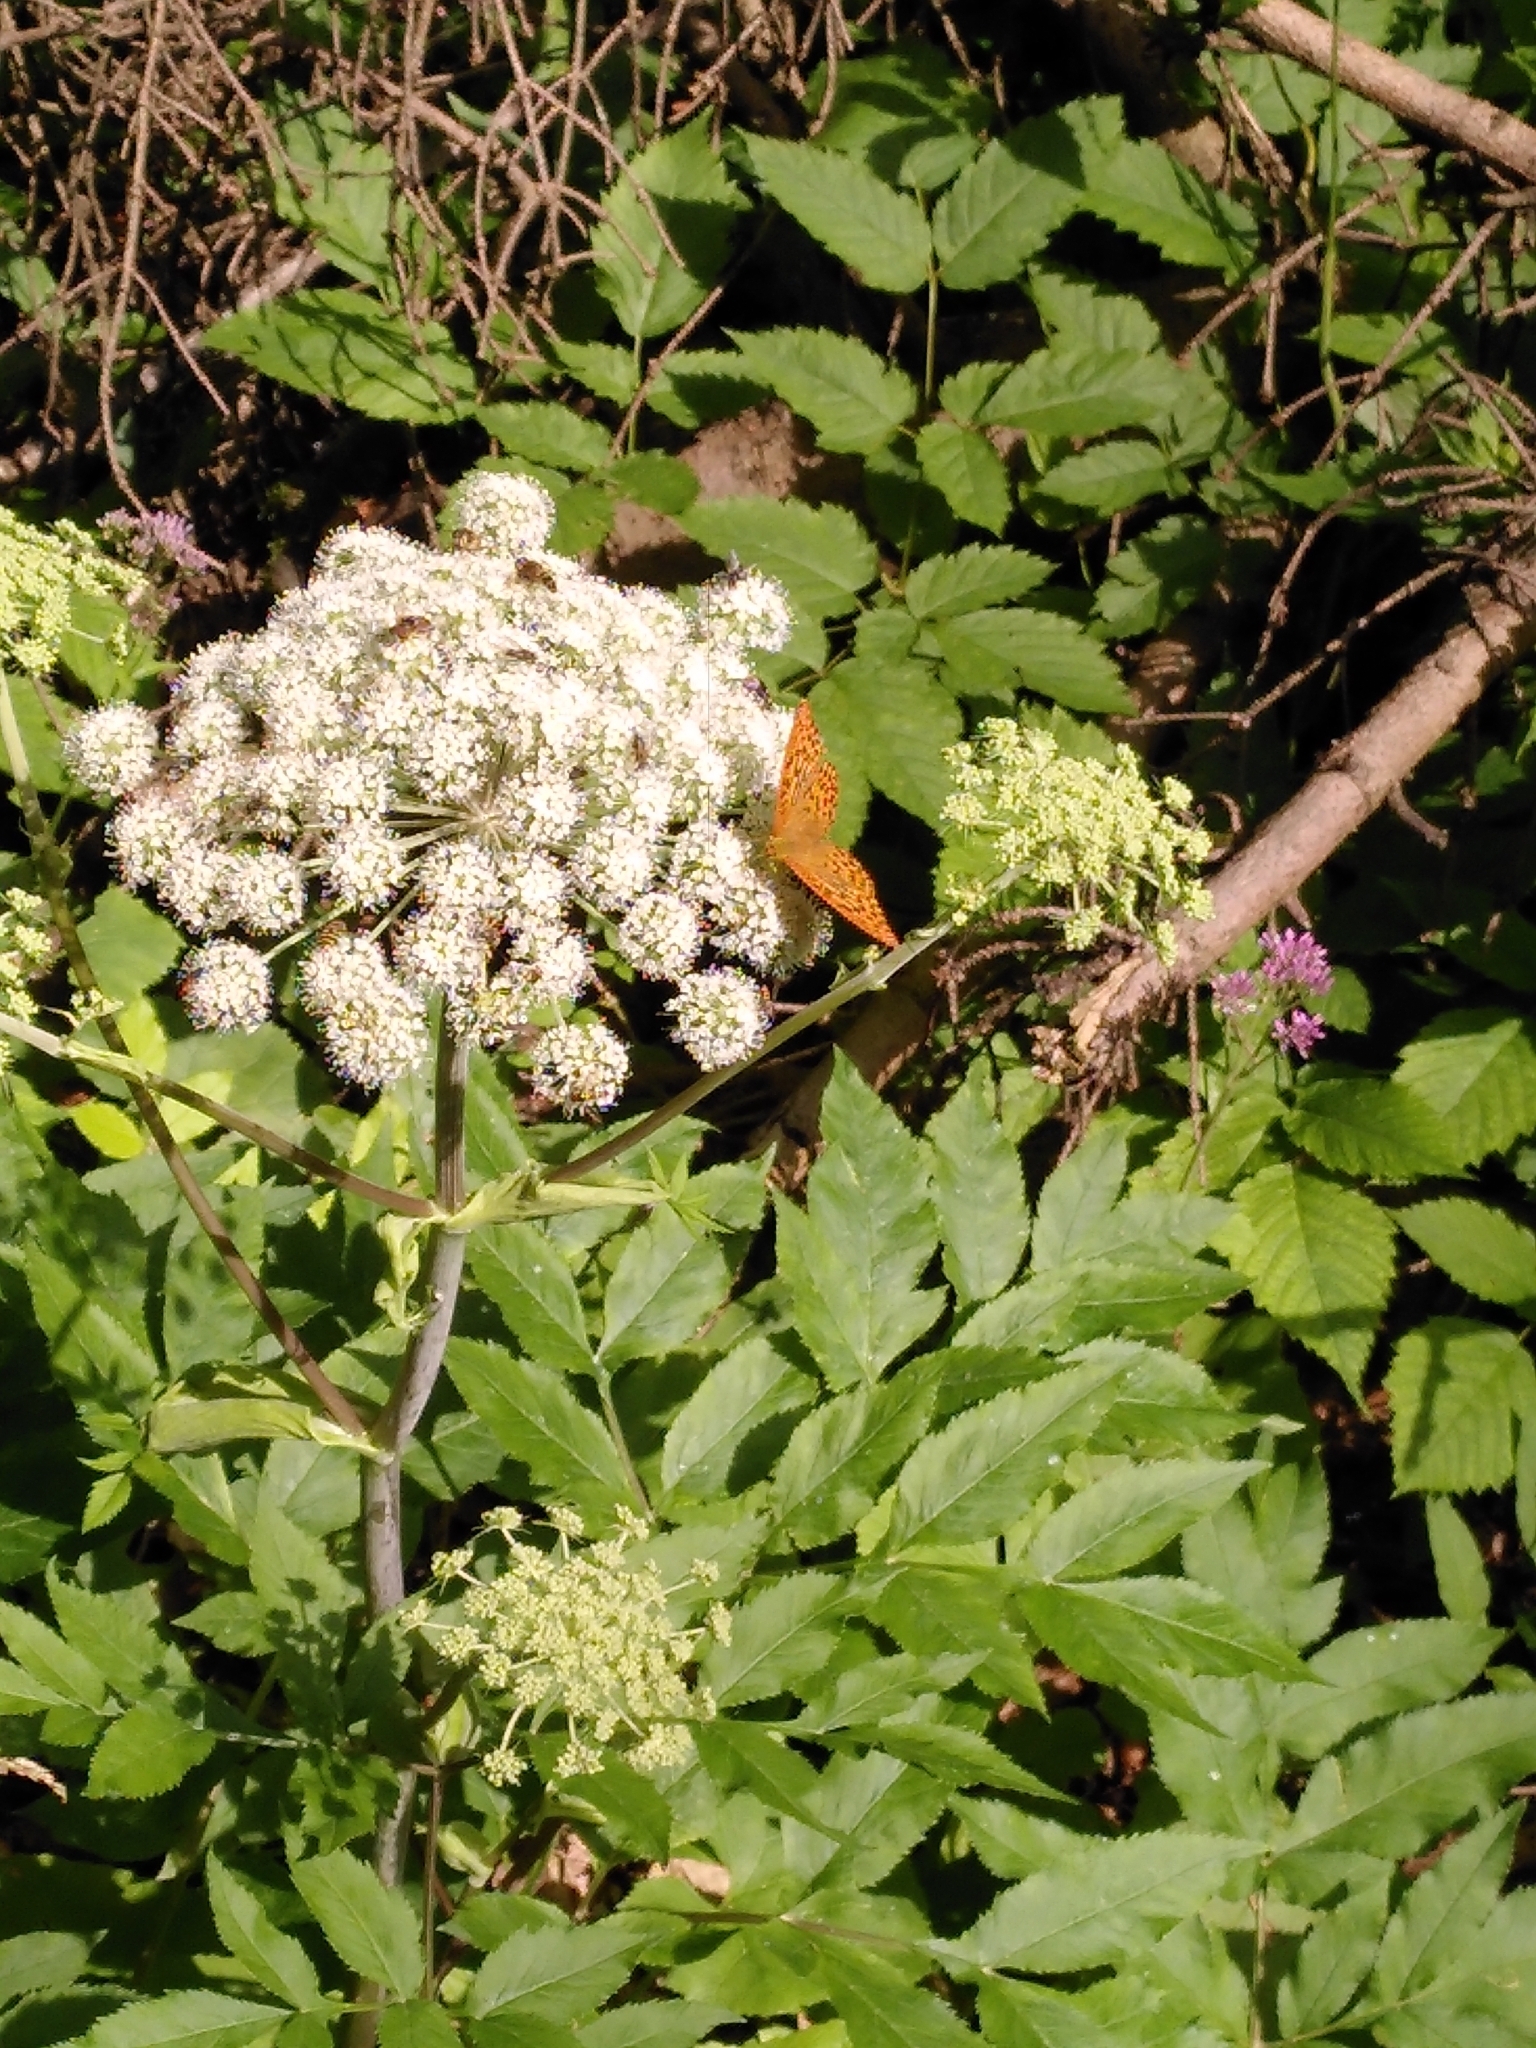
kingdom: Animalia
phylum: Arthropoda
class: Insecta
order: Lepidoptera
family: Nymphalidae
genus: Argynnis
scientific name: Argynnis paphia
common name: Silver-washed fritillary
